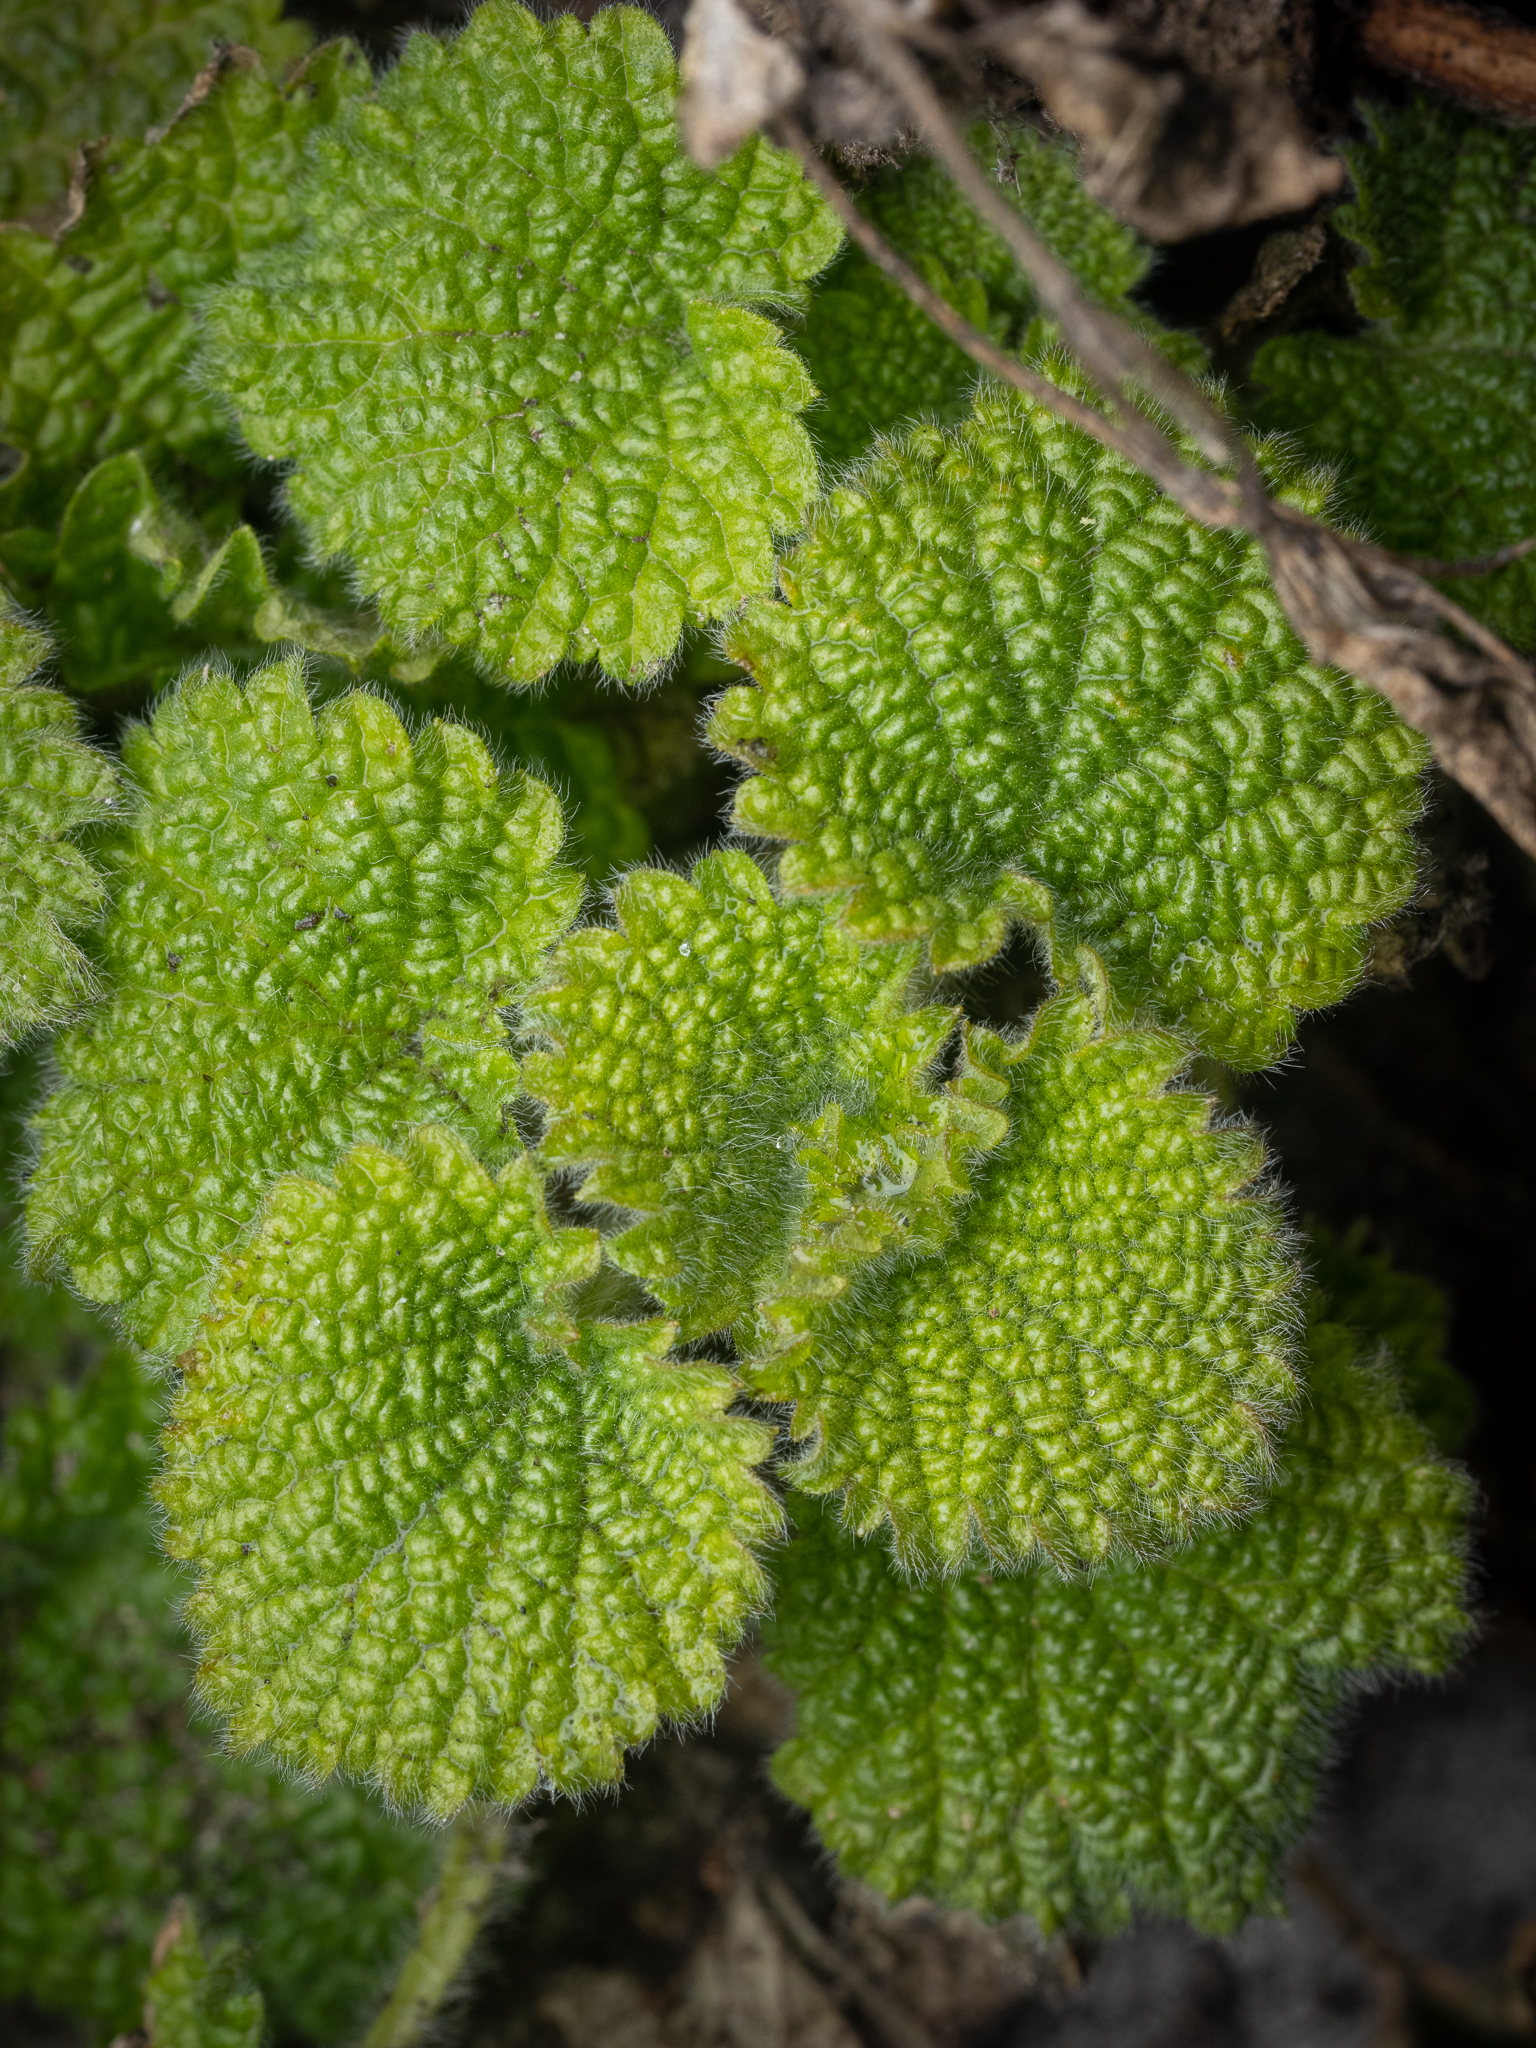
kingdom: Plantae
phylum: Tracheophyta
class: Magnoliopsida
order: Lamiales
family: Lamiaceae
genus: Ballota
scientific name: Ballota nigra
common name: Black horehound
